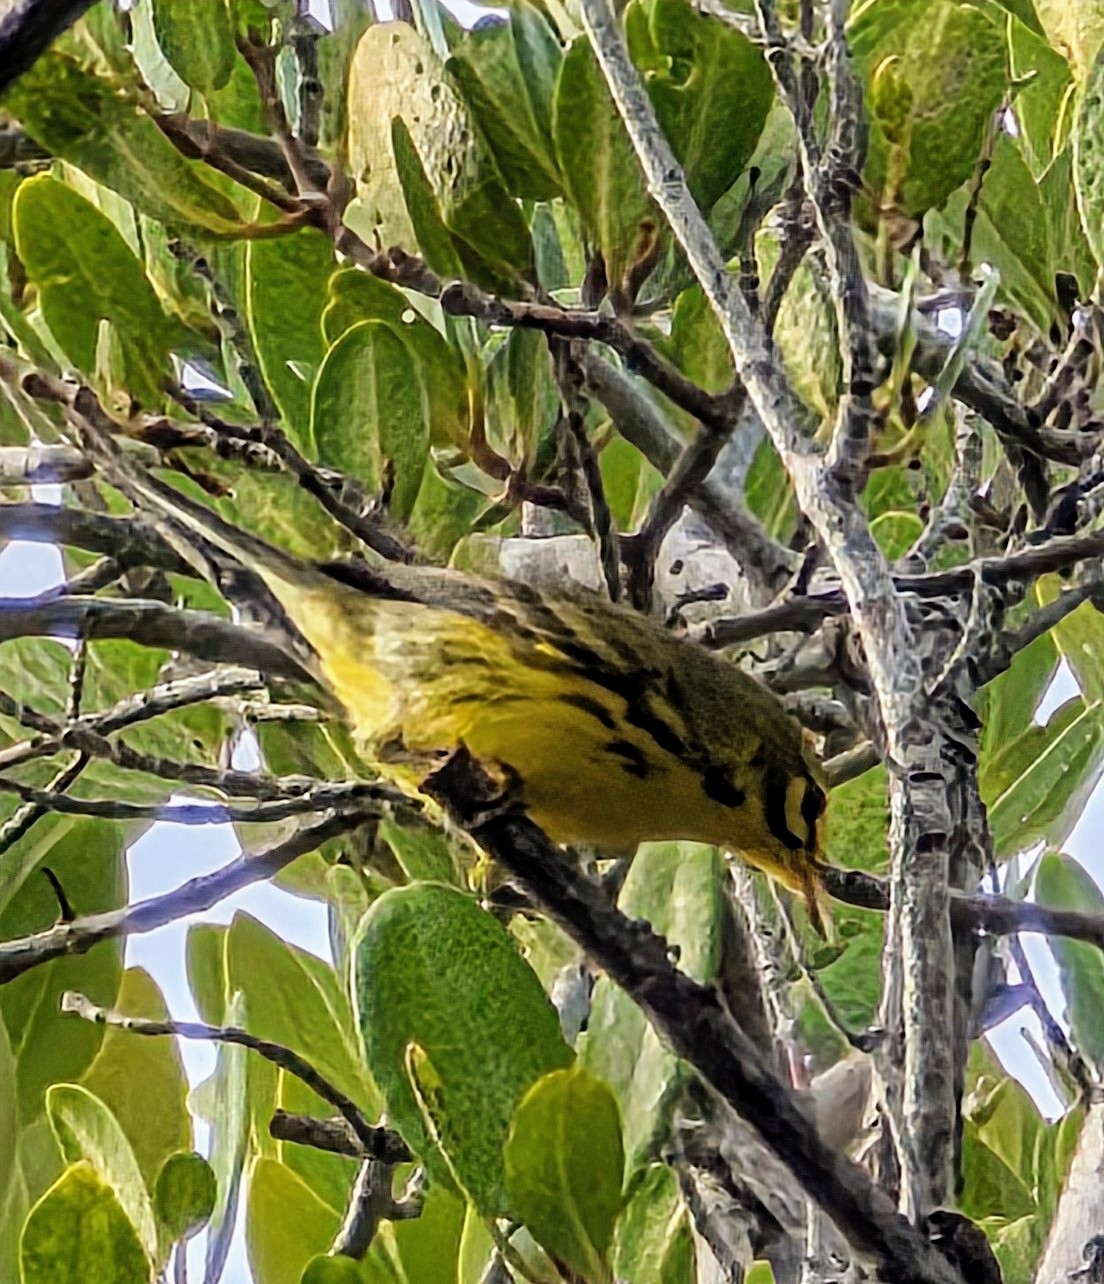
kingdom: Animalia
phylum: Chordata
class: Aves
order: Passeriformes
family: Parulidae
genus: Setophaga
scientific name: Setophaga discolor
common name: Prairie warbler
